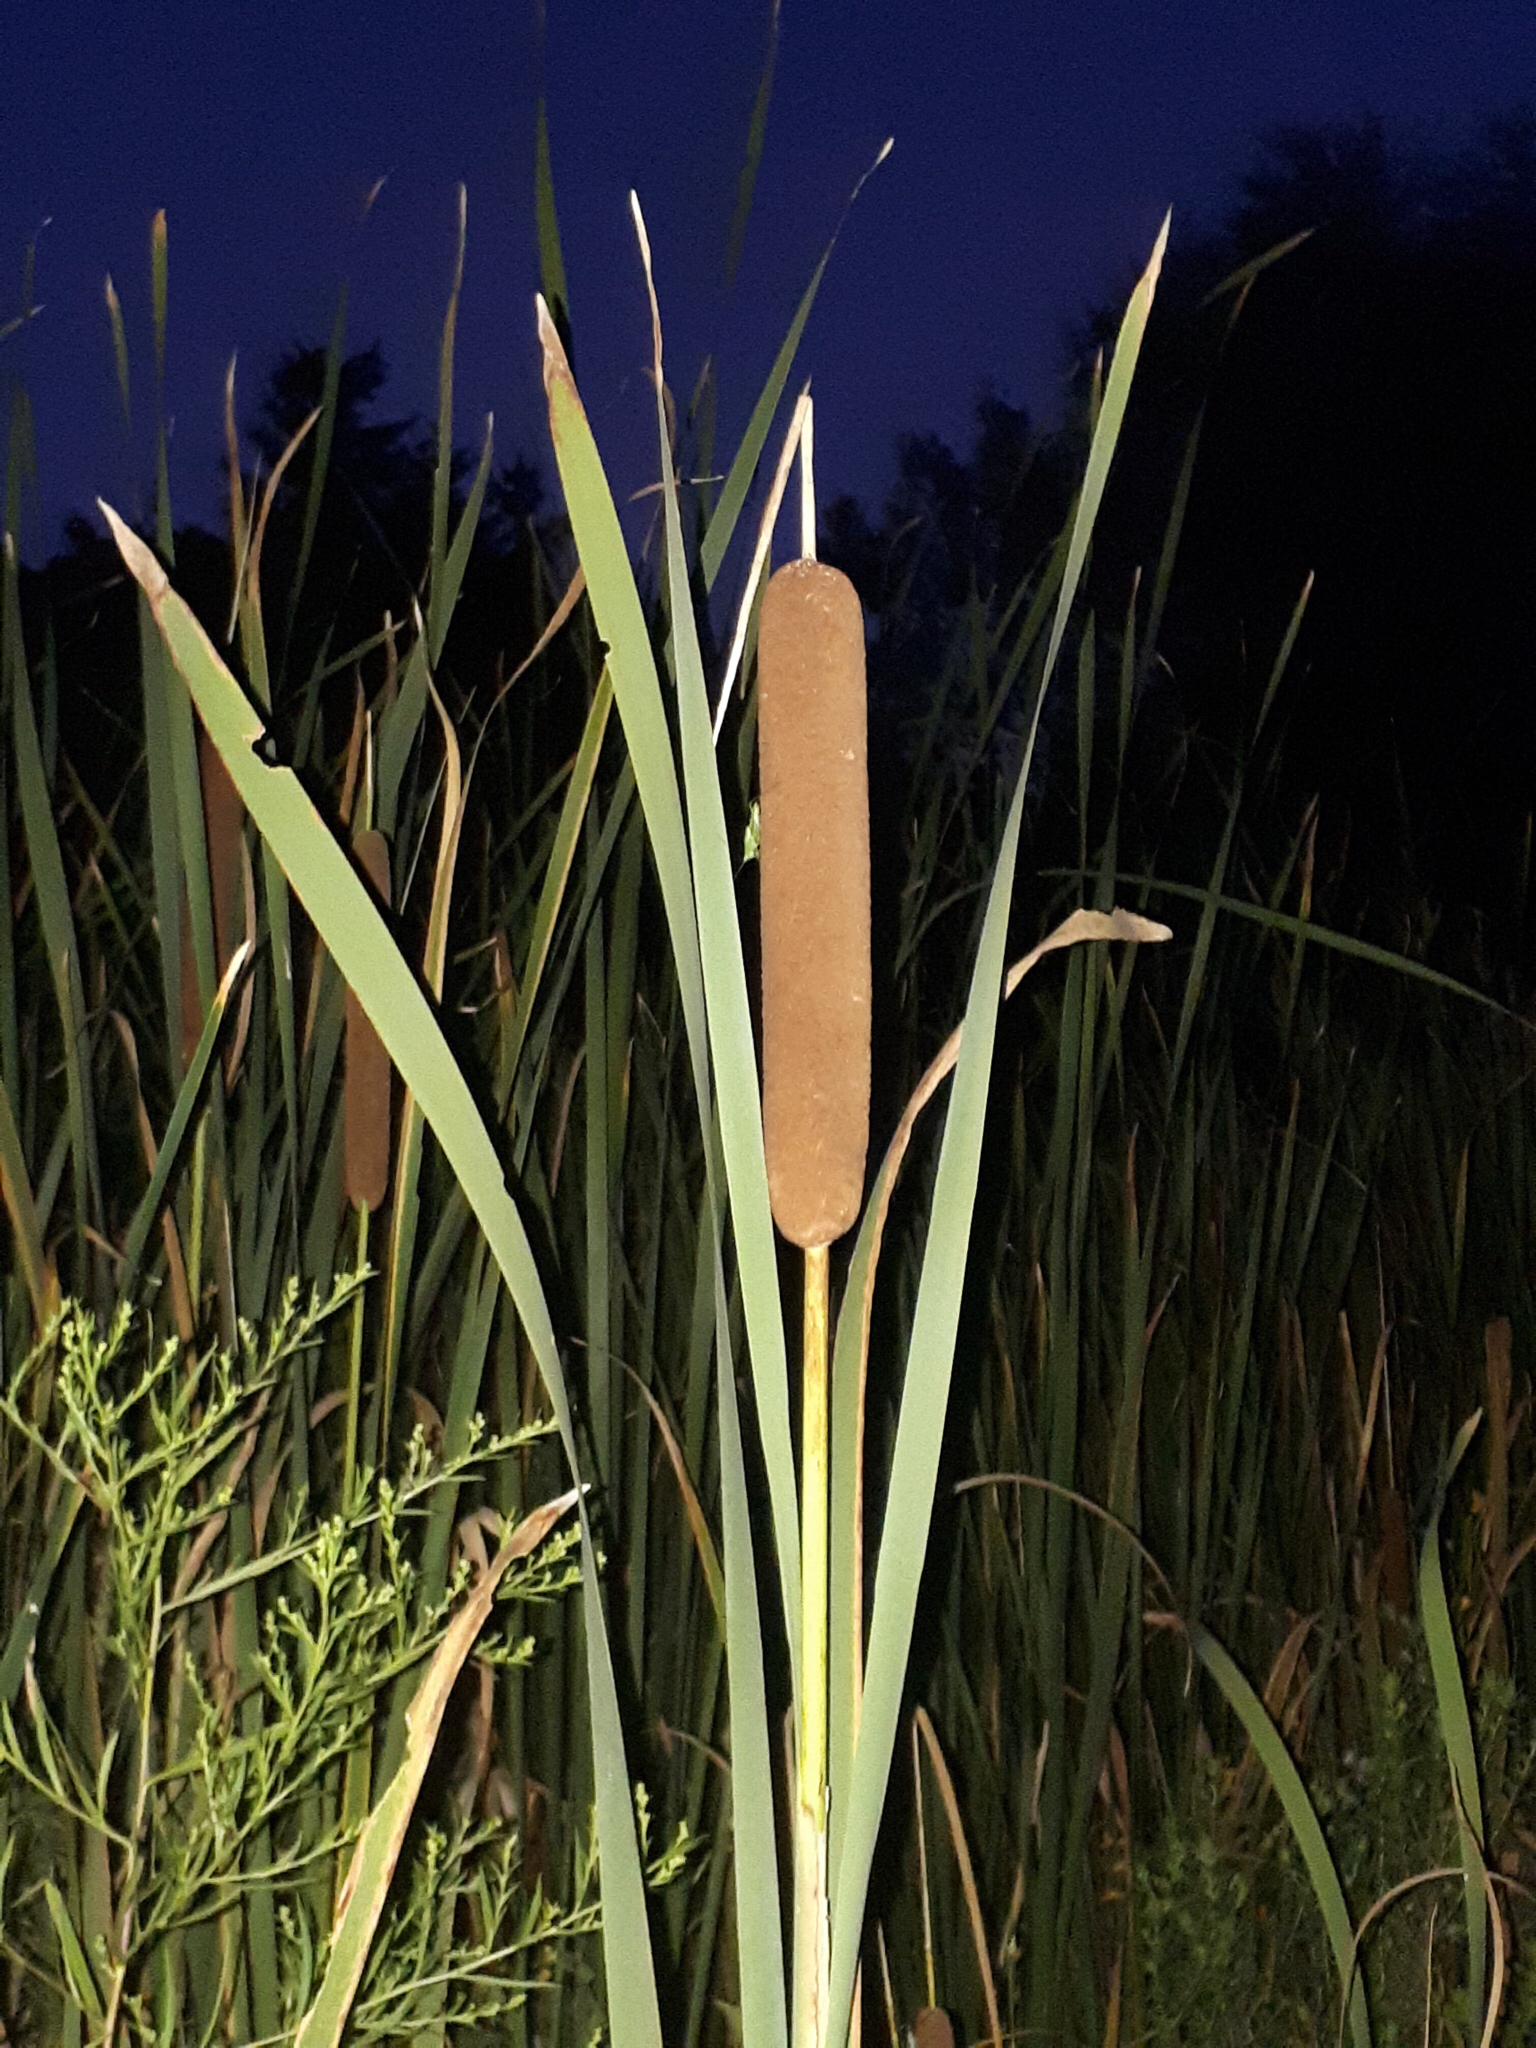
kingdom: Plantae
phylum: Tracheophyta
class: Liliopsida
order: Poales
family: Typhaceae
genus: Typha
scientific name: Typha latifolia
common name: Broadleaf cattail
